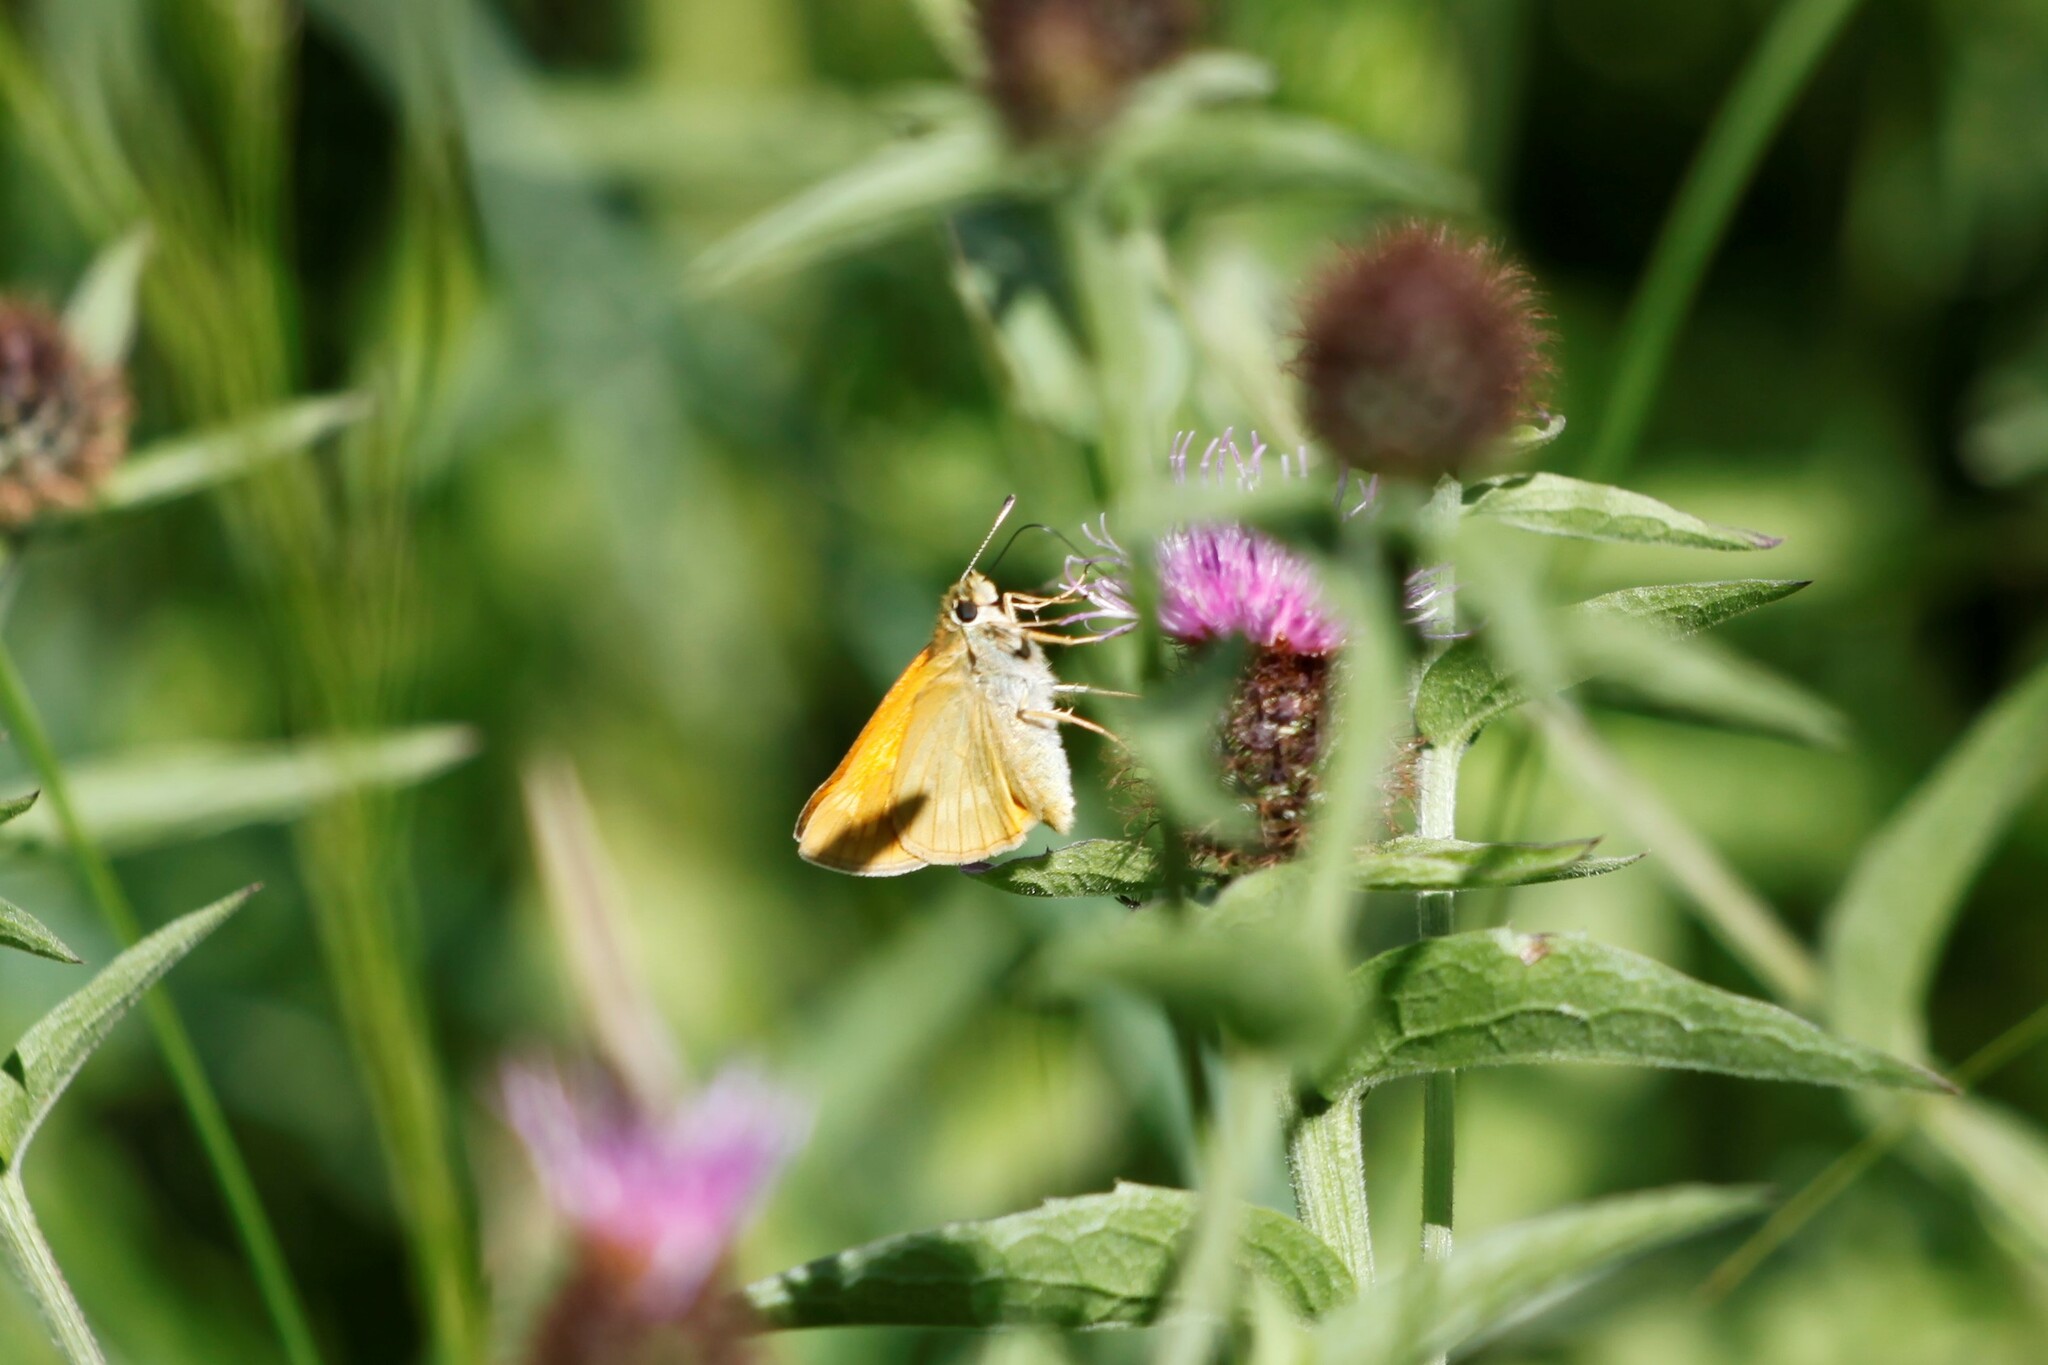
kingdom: Animalia
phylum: Arthropoda
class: Insecta
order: Lepidoptera
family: Hesperiidae
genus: Ochlodes
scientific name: Ochlodes venata
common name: Large skipper
